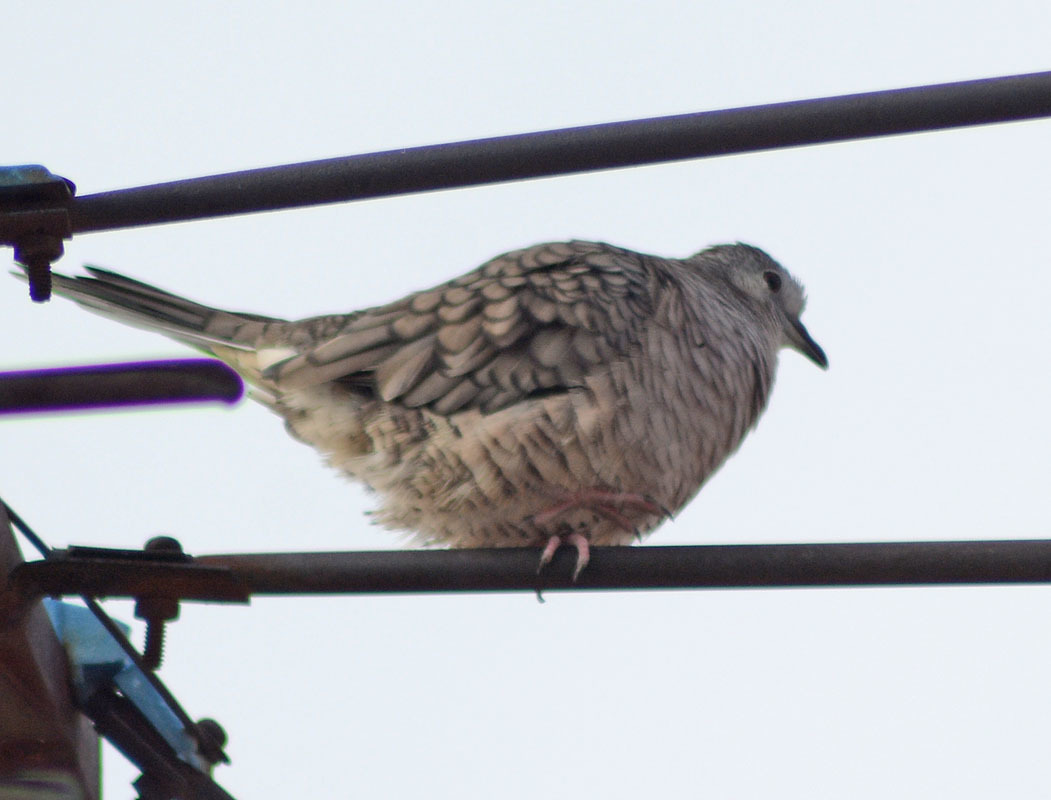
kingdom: Animalia
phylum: Chordata
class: Aves
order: Columbiformes
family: Columbidae
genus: Columbina
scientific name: Columbina inca
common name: Inca dove
